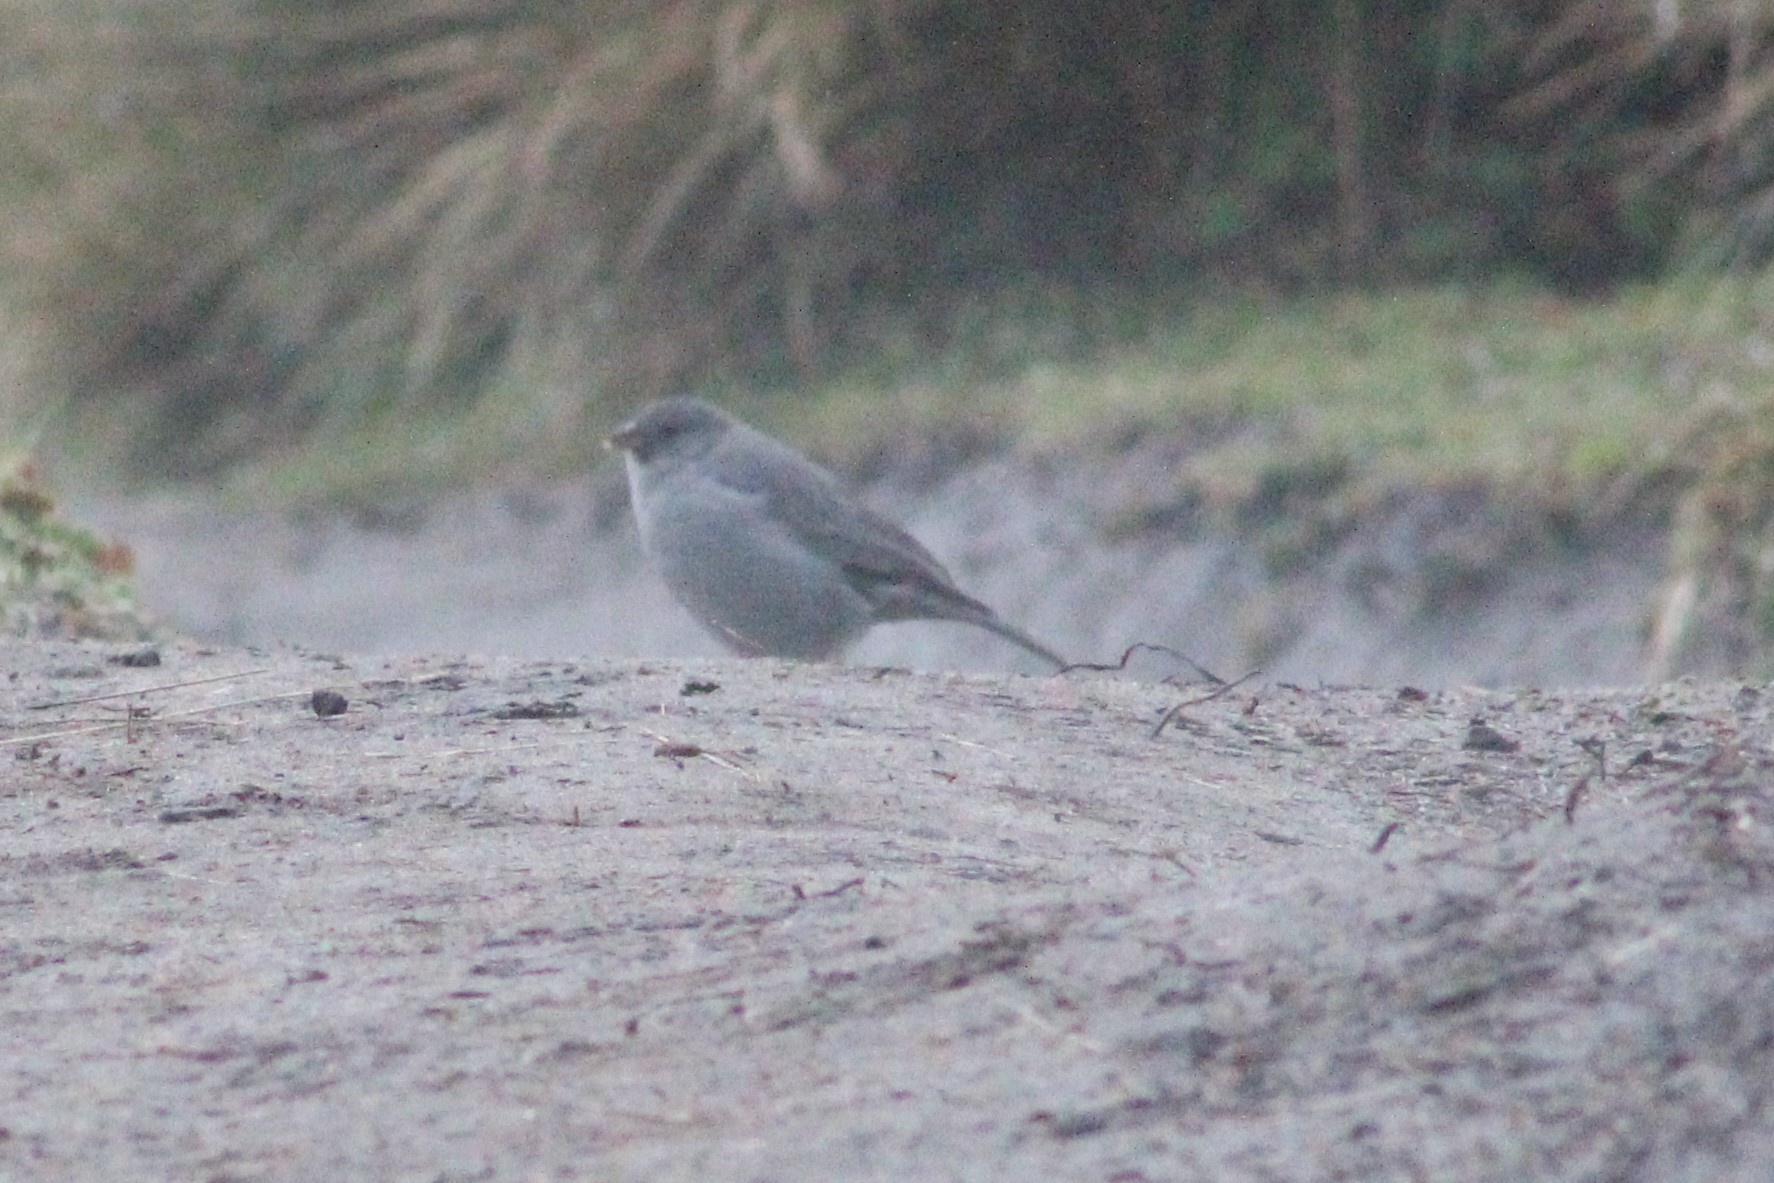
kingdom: Animalia
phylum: Chordata
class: Aves
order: Passeriformes
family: Thraupidae
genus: Geospizopsis
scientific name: Geospizopsis unicolor
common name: Plumbeous sierra-finch
